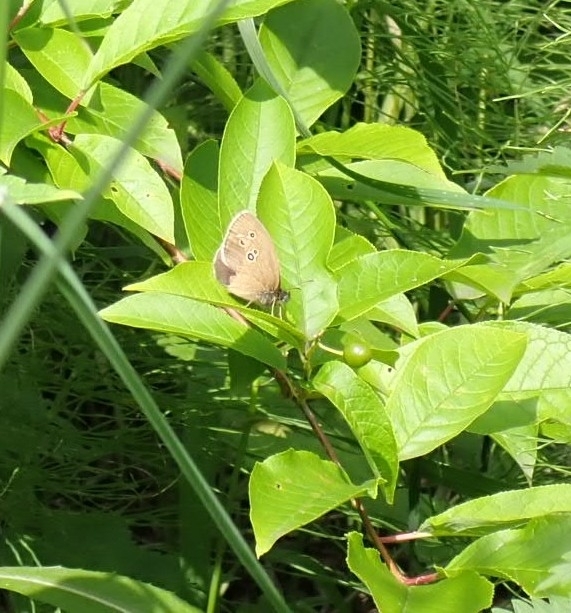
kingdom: Animalia
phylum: Arthropoda
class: Insecta
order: Lepidoptera
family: Nymphalidae
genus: Aphantopus
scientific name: Aphantopus hyperantus
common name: Ringlet
